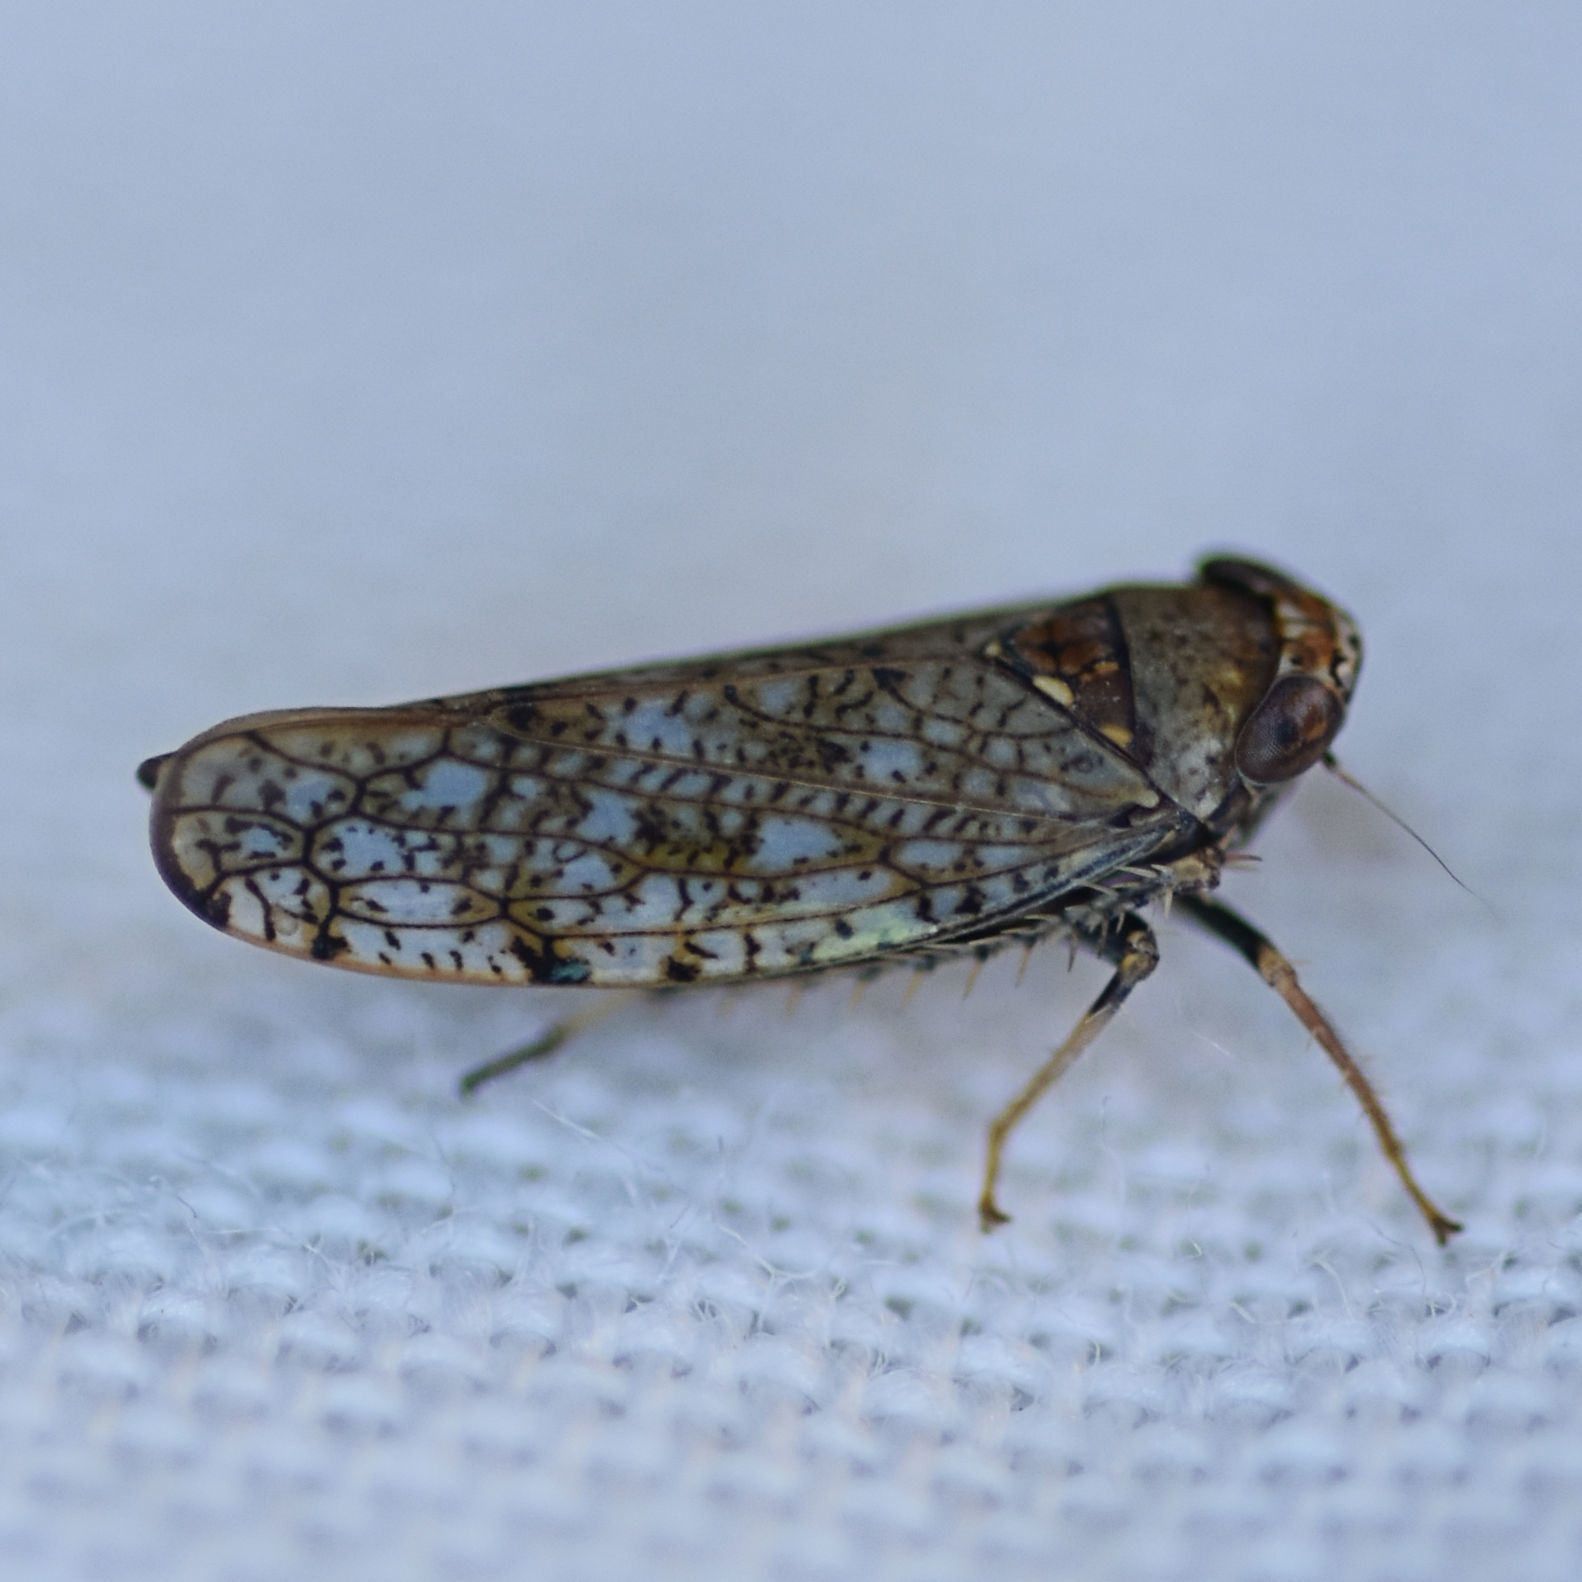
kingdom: Animalia
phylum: Arthropoda
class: Insecta
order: Hemiptera
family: Cicadellidae
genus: Orientus
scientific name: Orientus ishidae
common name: Japanese leafhopper
